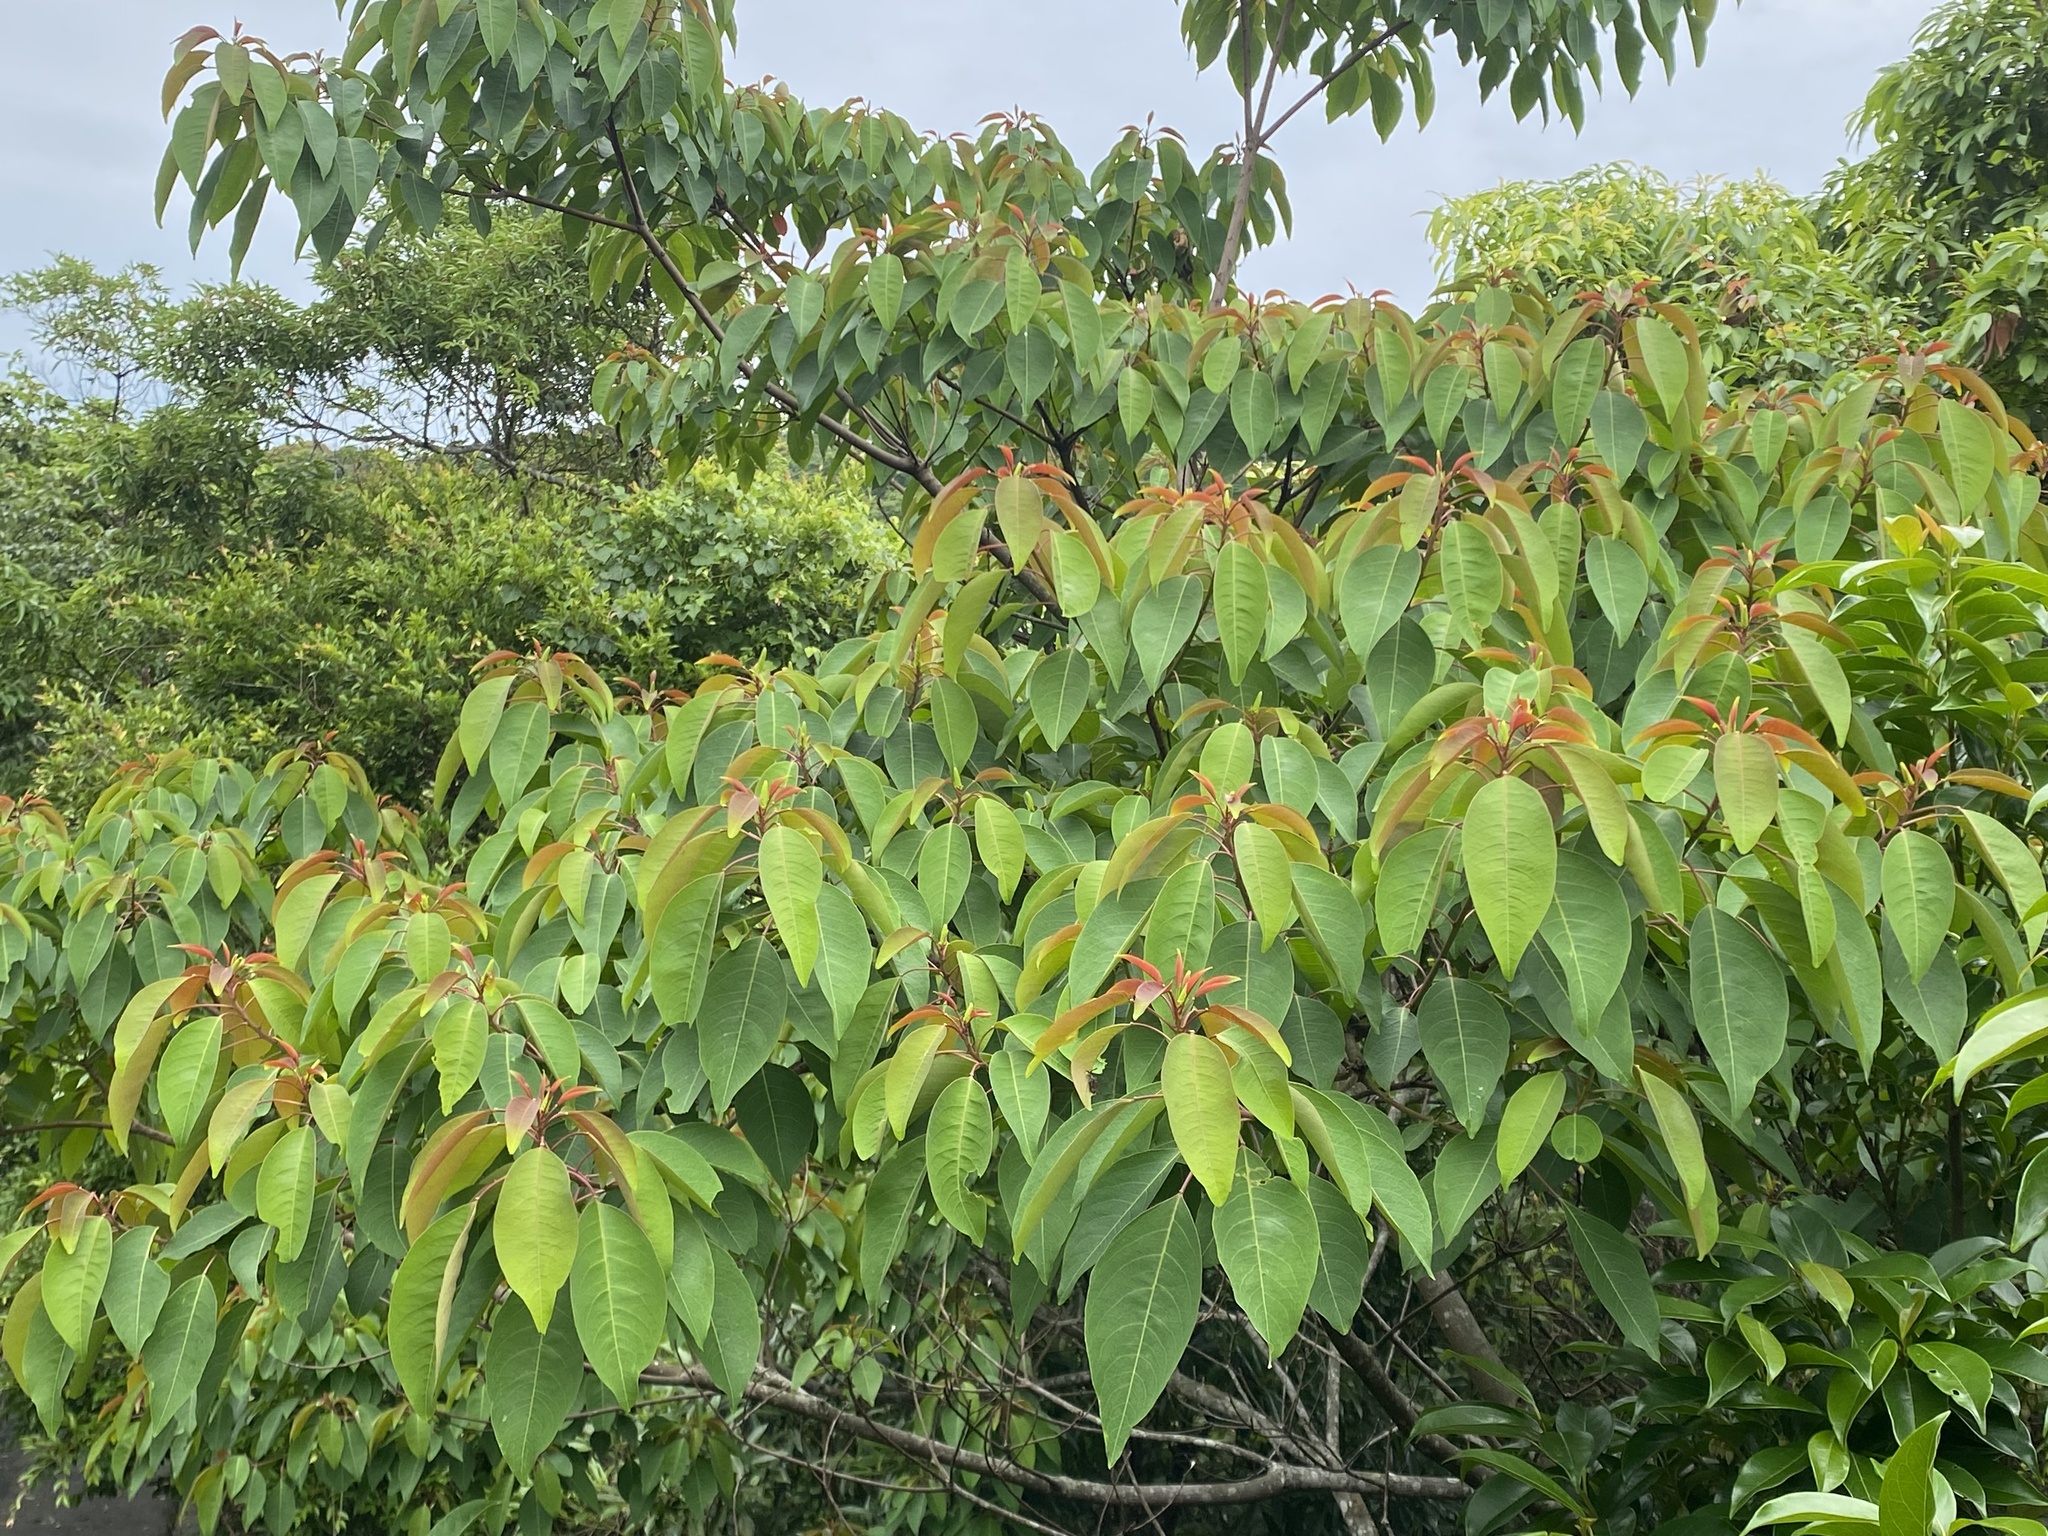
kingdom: Plantae
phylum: Tracheophyta
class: Magnoliopsida
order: Malpighiales
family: Euphorbiaceae
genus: Triadica
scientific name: Triadica cochinchinensis
